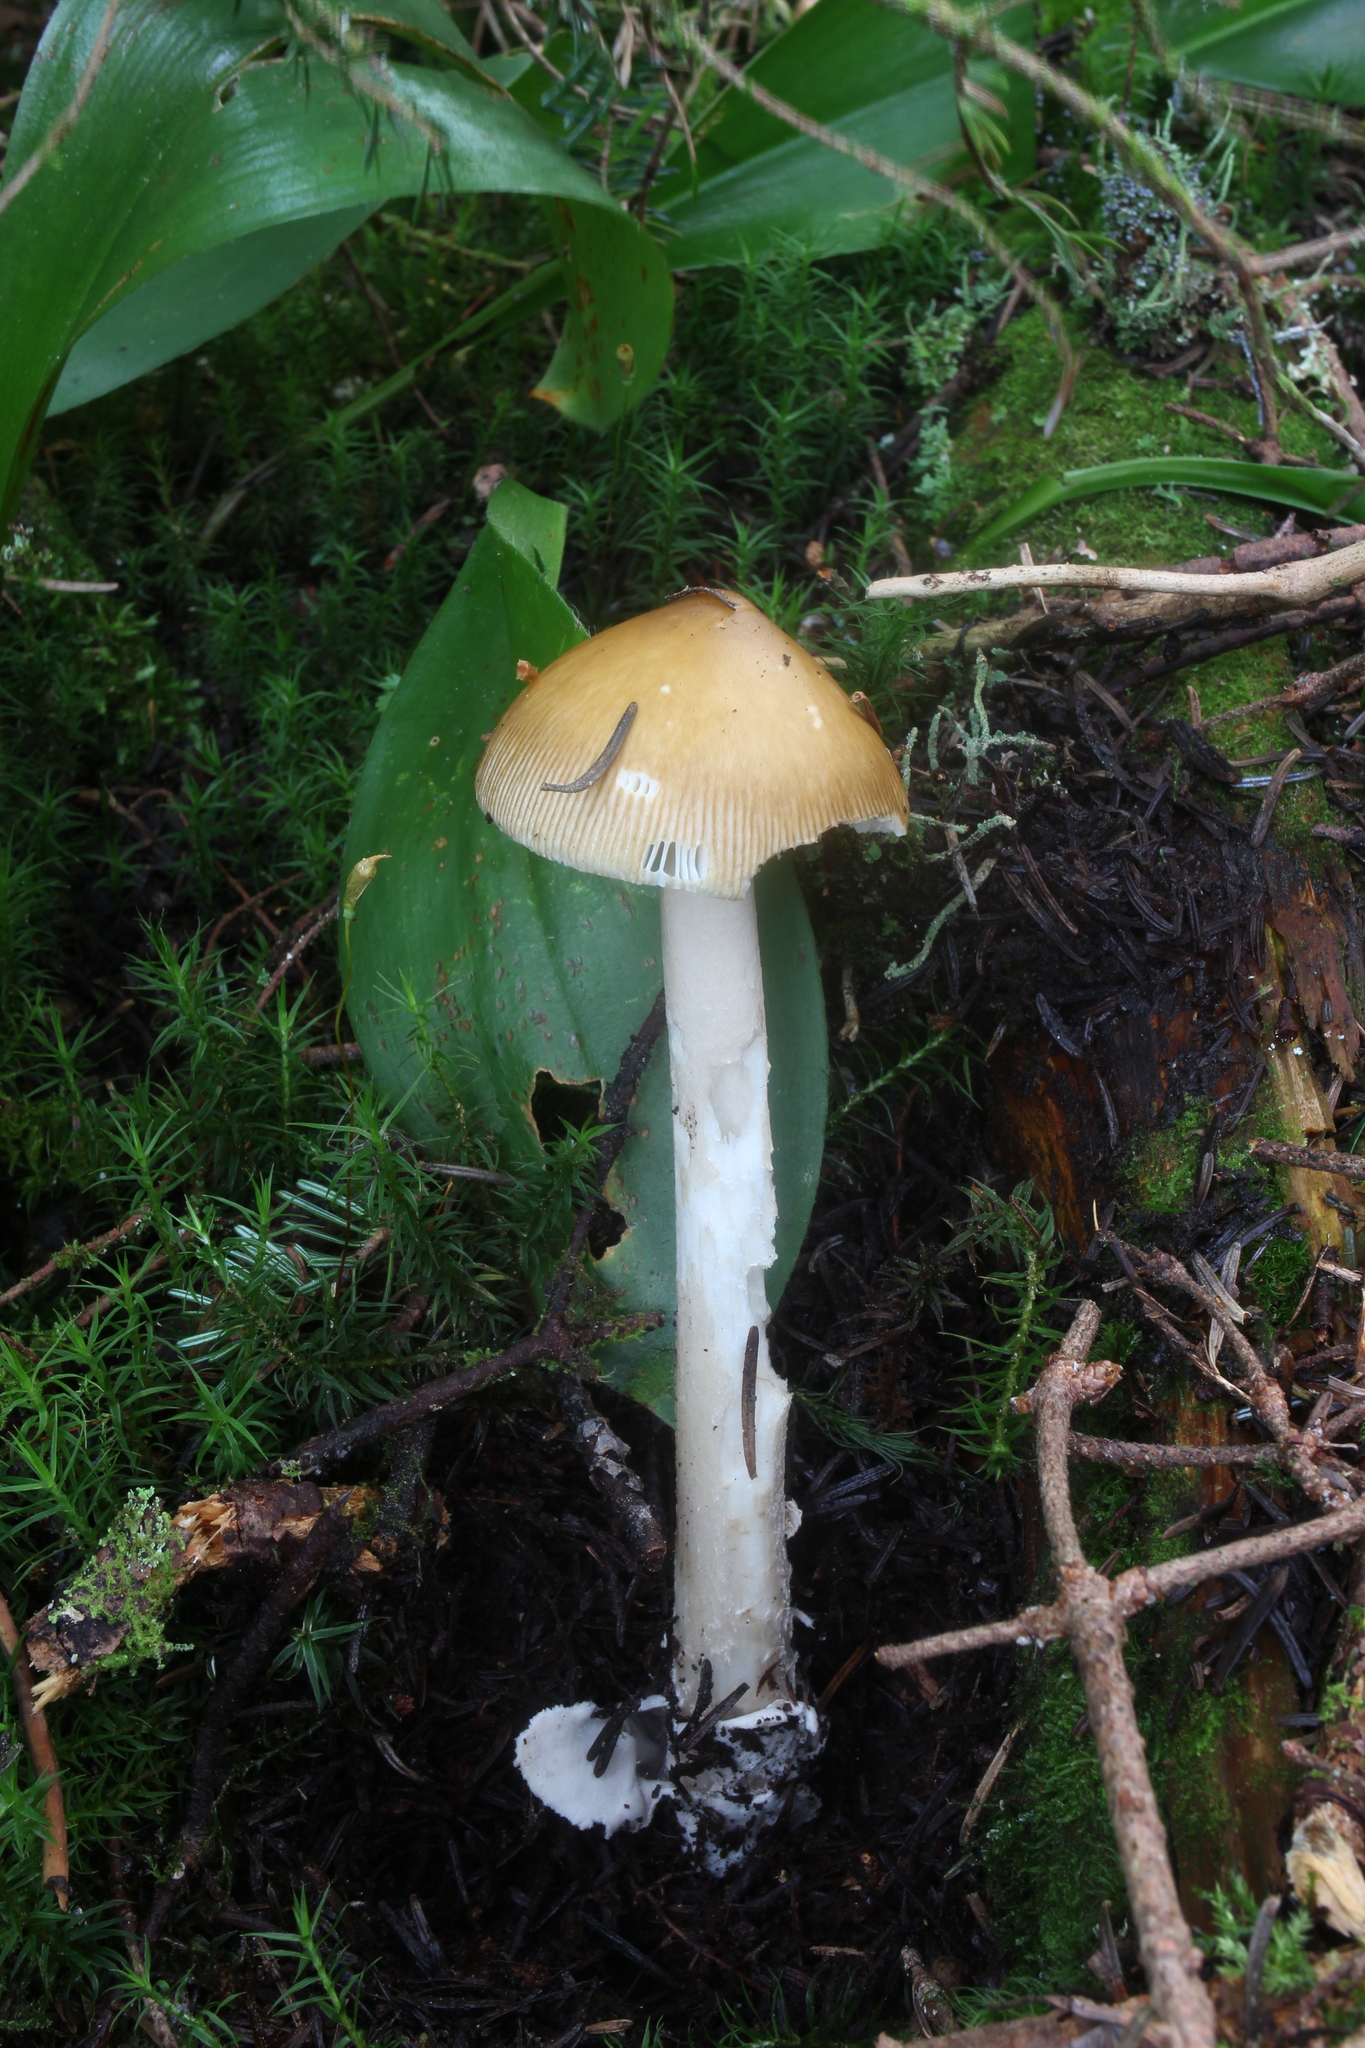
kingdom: Fungi
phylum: Basidiomycota
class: Agaricomycetes
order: Agaricales
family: Amanitaceae
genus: Amanita
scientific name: Amanita sinicoflava
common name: Mandarin yellow ringless amanita
